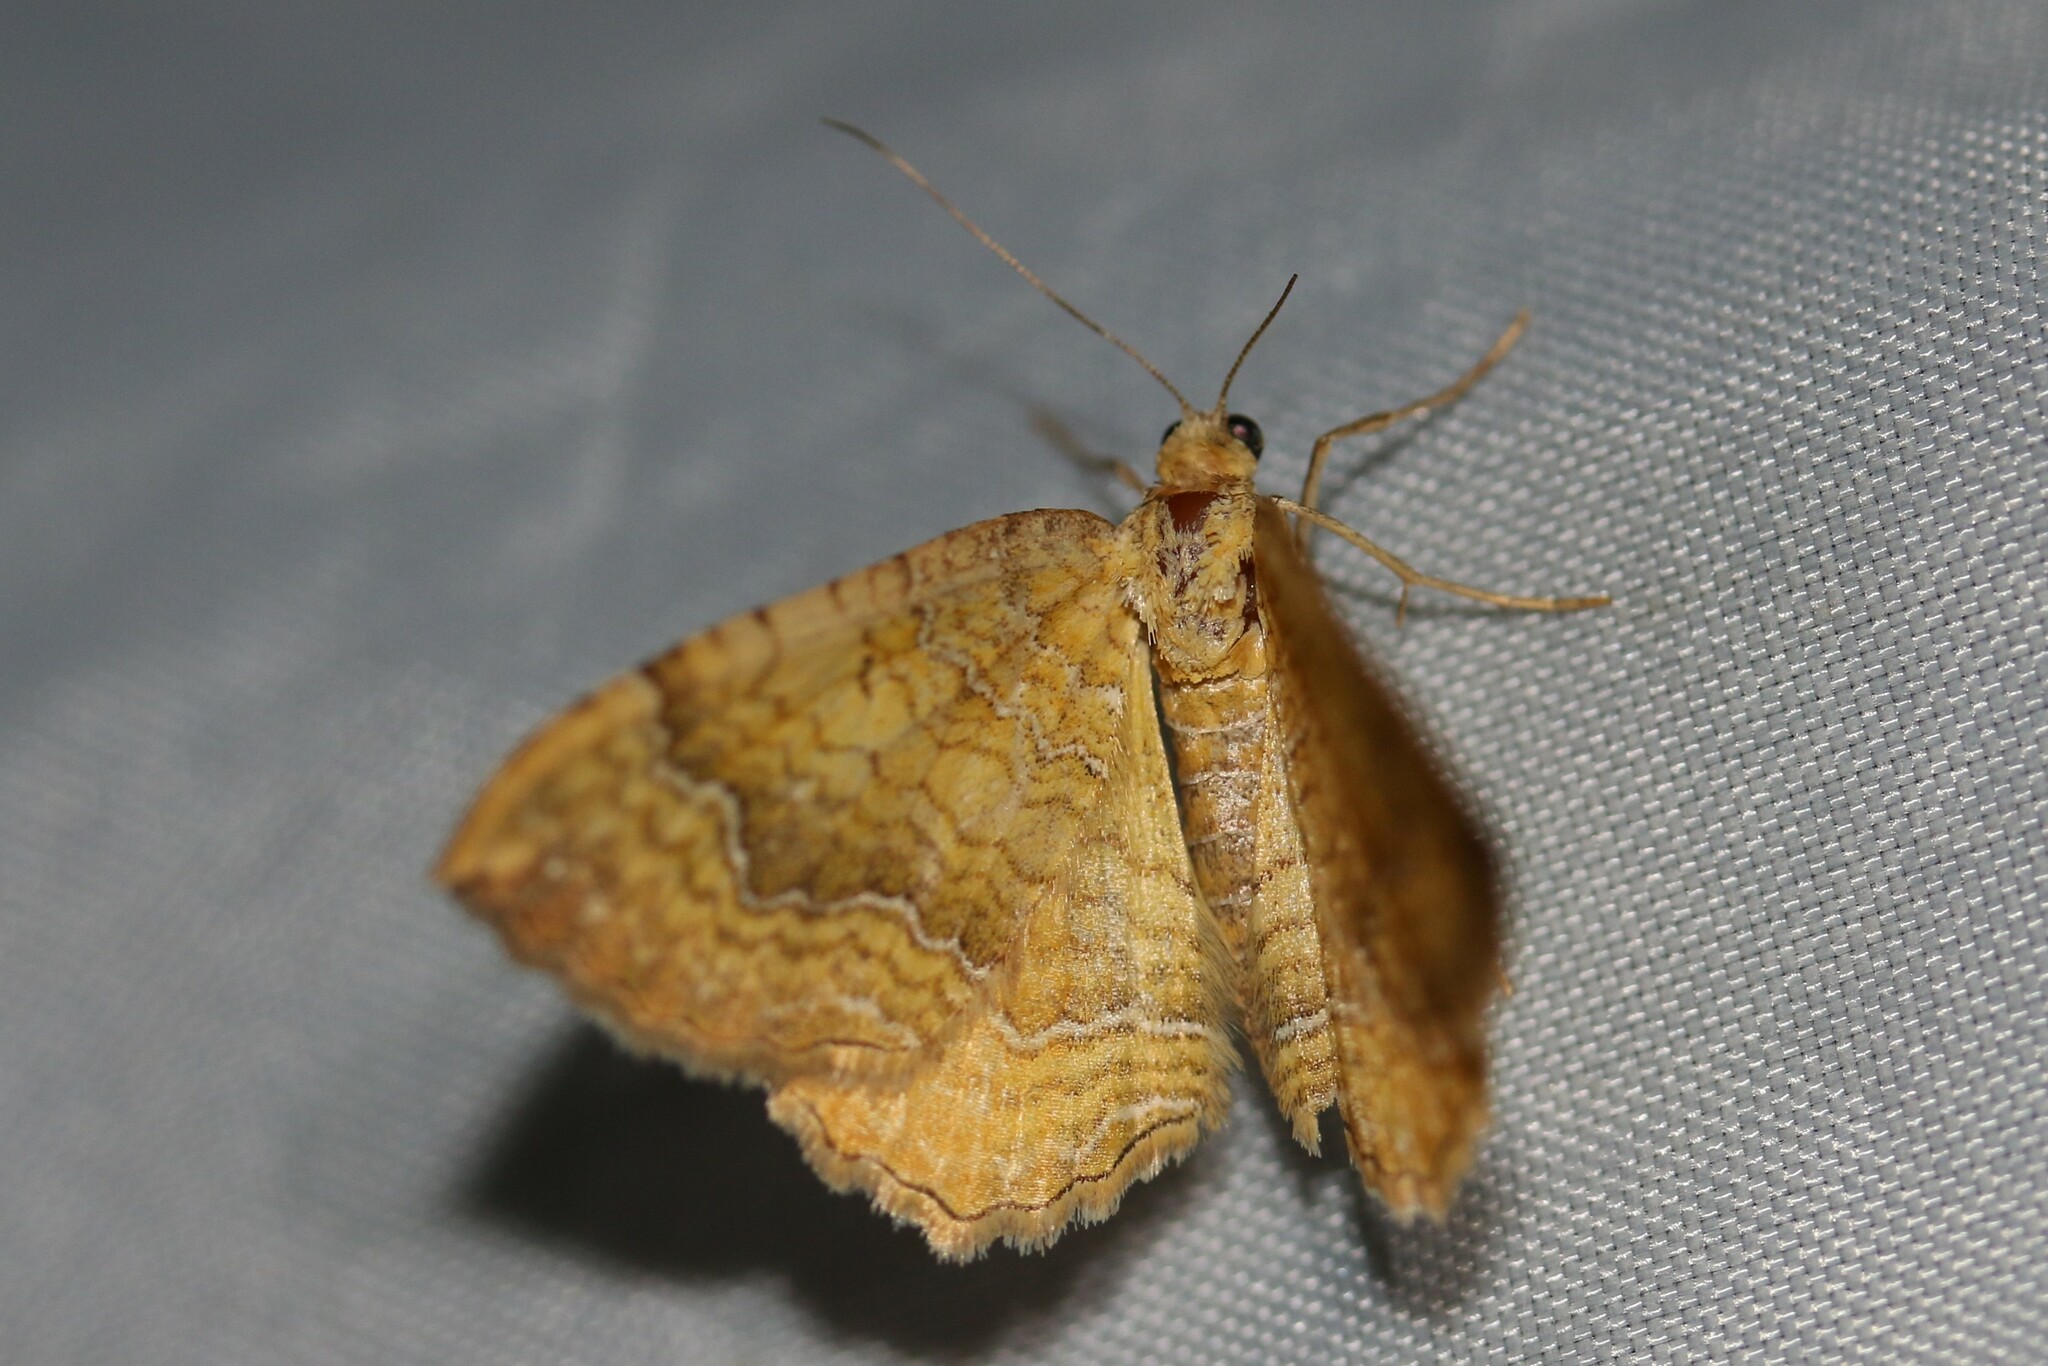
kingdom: Animalia
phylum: Arthropoda
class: Insecta
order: Lepidoptera
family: Geometridae
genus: Camptogramma
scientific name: Camptogramma bilineata
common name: Yellow shell
